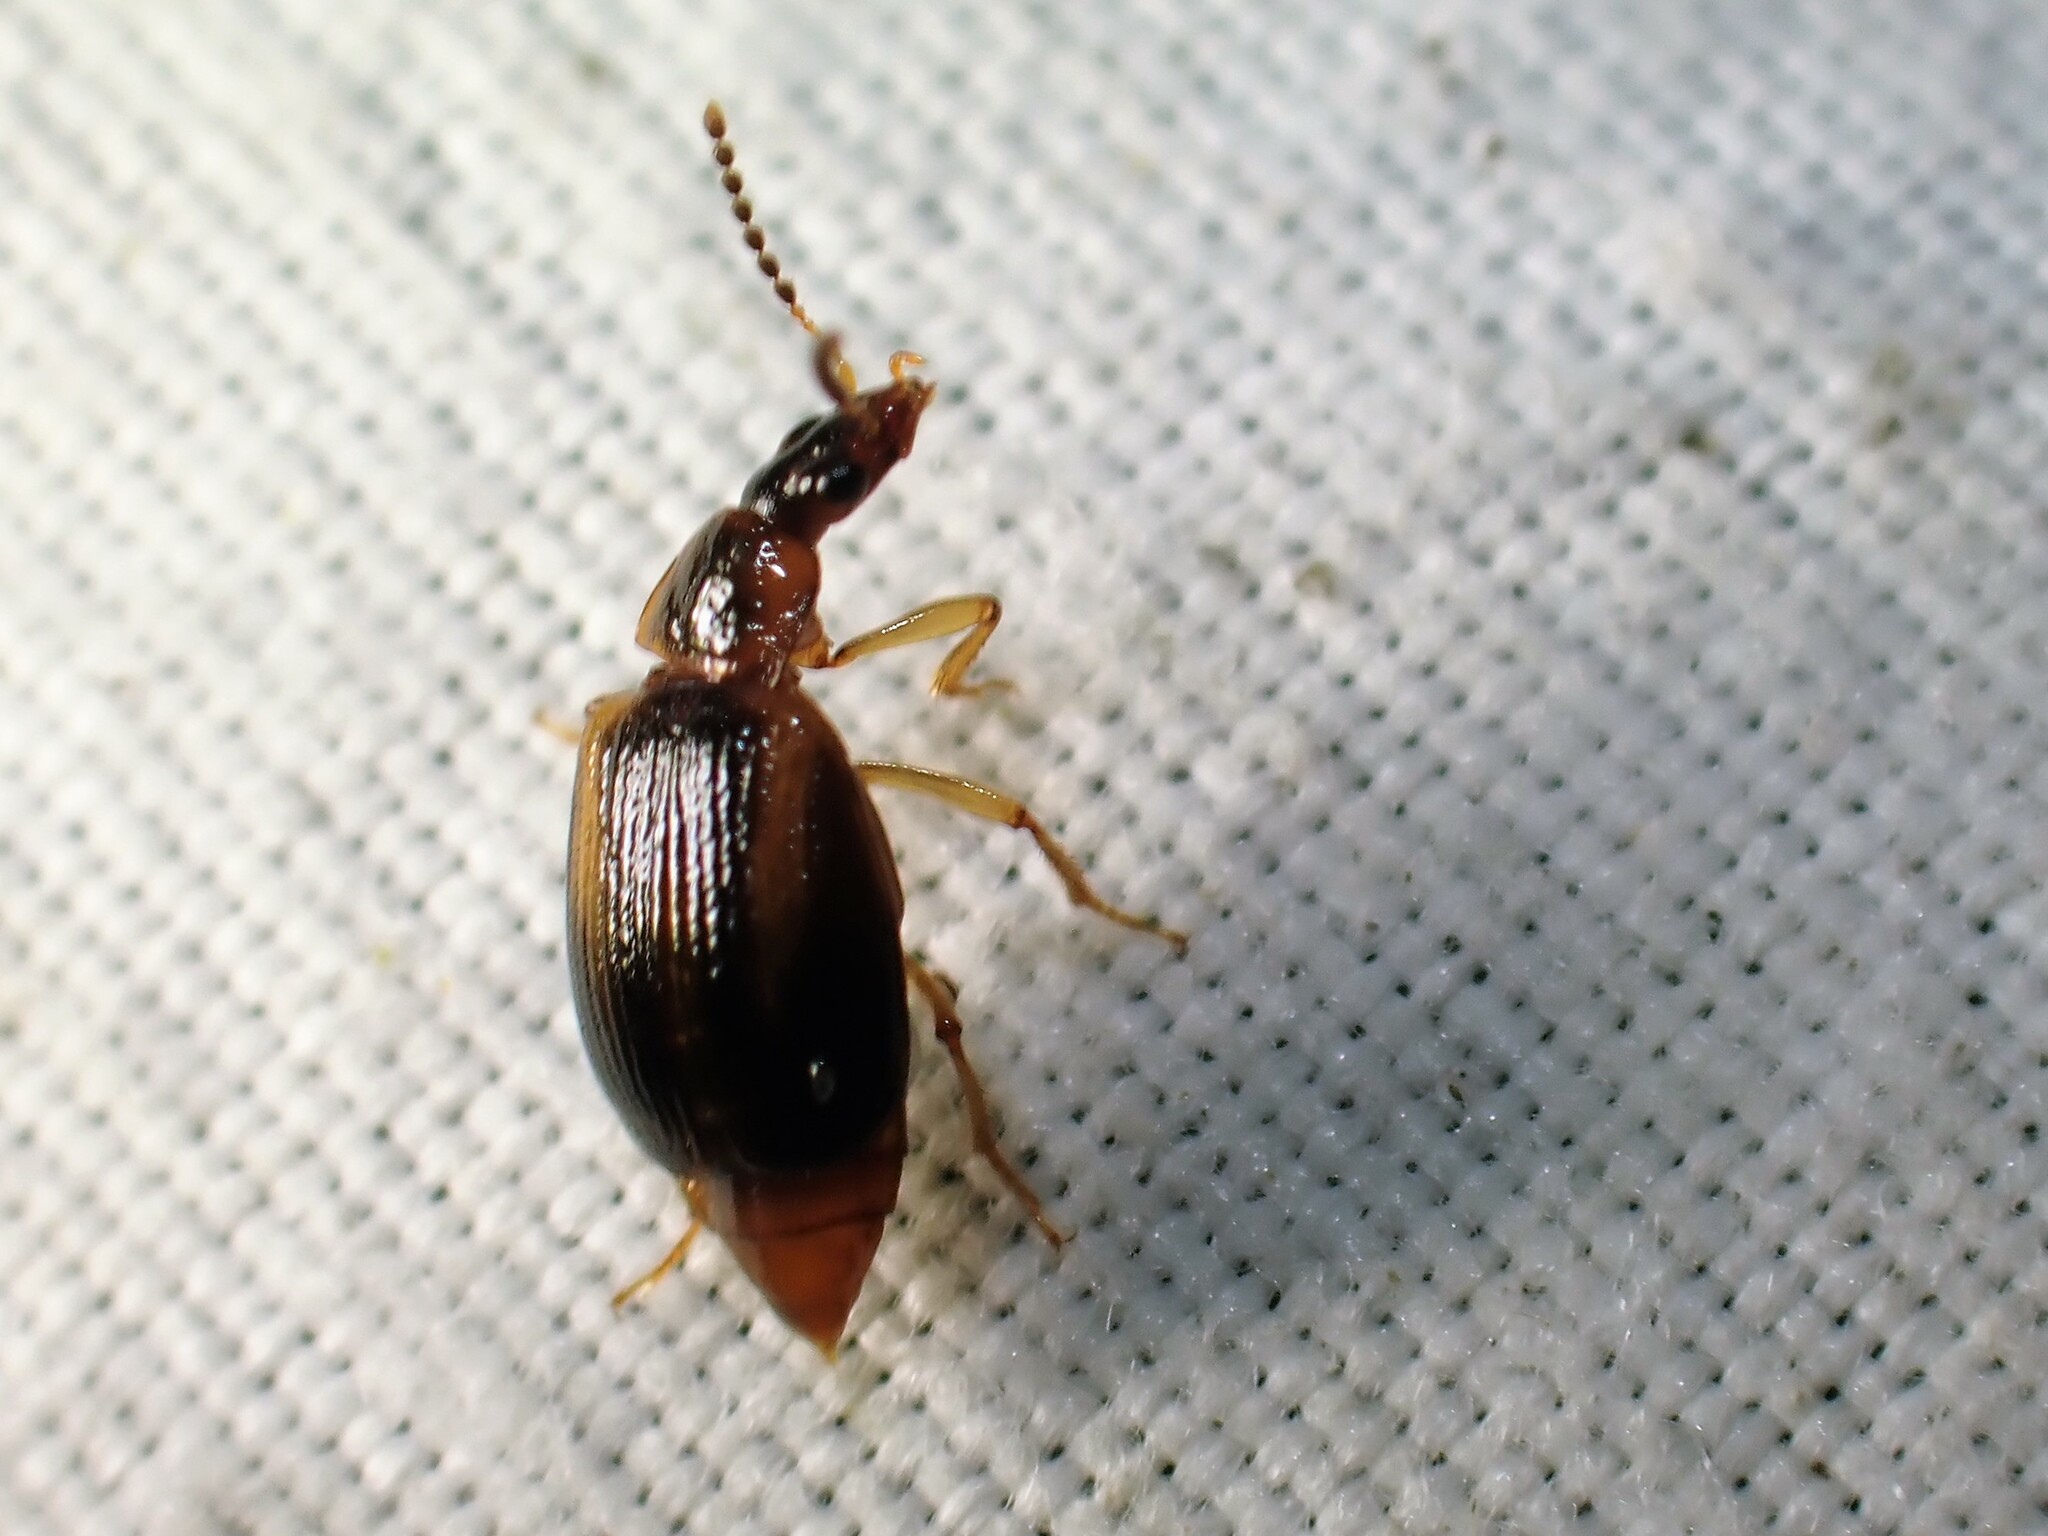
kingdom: Animalia
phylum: Arthropoda
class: Insecta
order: Coleoptera
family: Staphylinidae
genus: Trigonodemus
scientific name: Trigonodemus striatus
